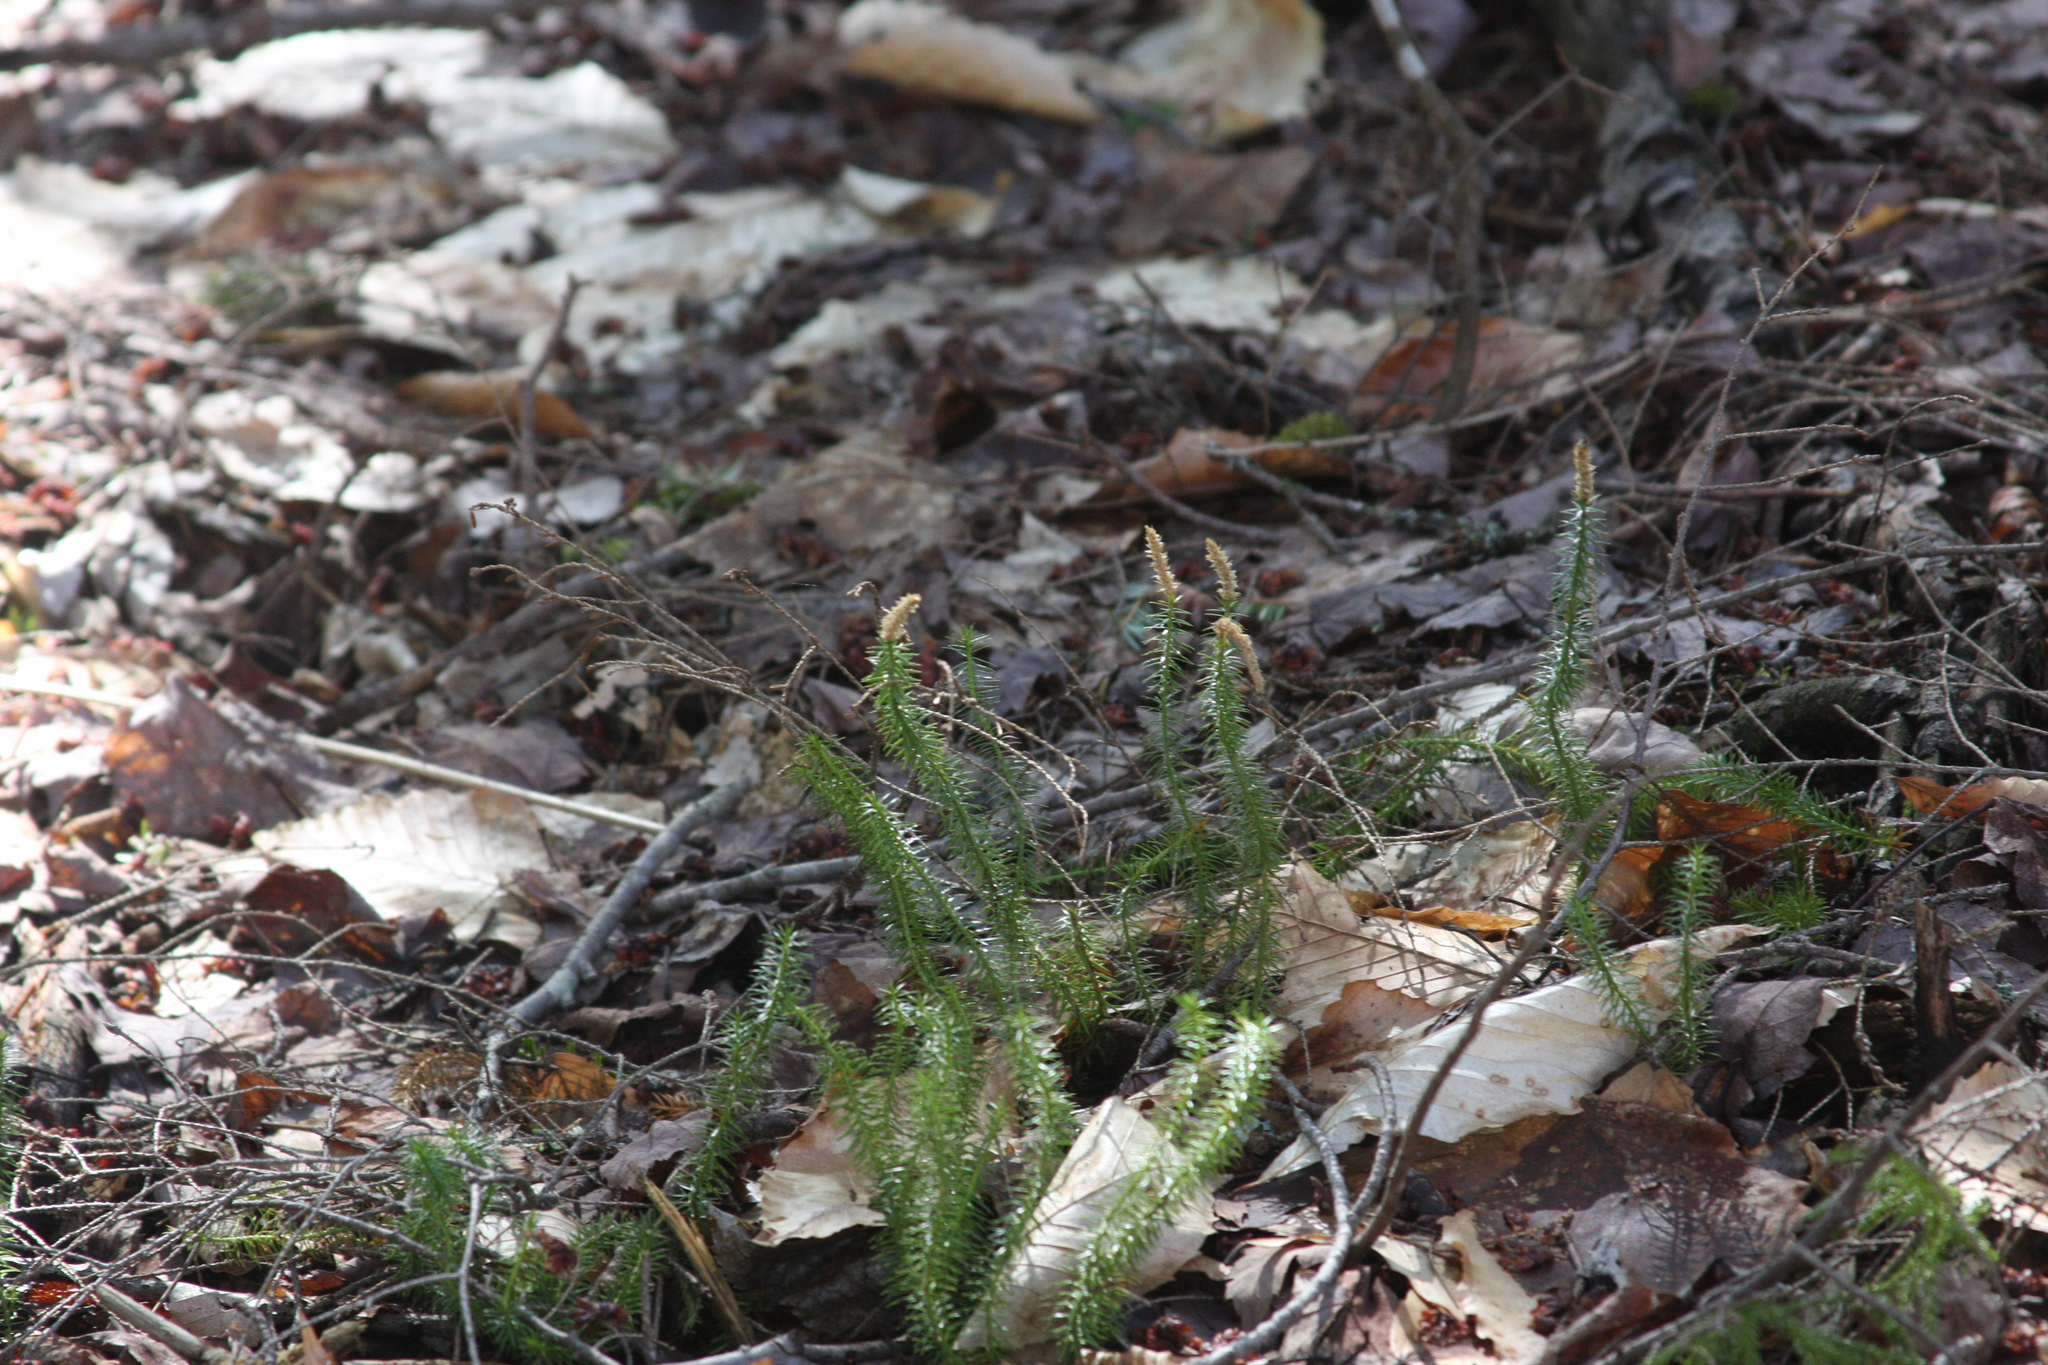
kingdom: Plantae
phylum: Tracheophyta
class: Lycopodiopsida
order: Lycopodiales
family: Lycopodiaceae
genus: Spinulum
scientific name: Spinulum annotinum
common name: Interrupted club-moss
